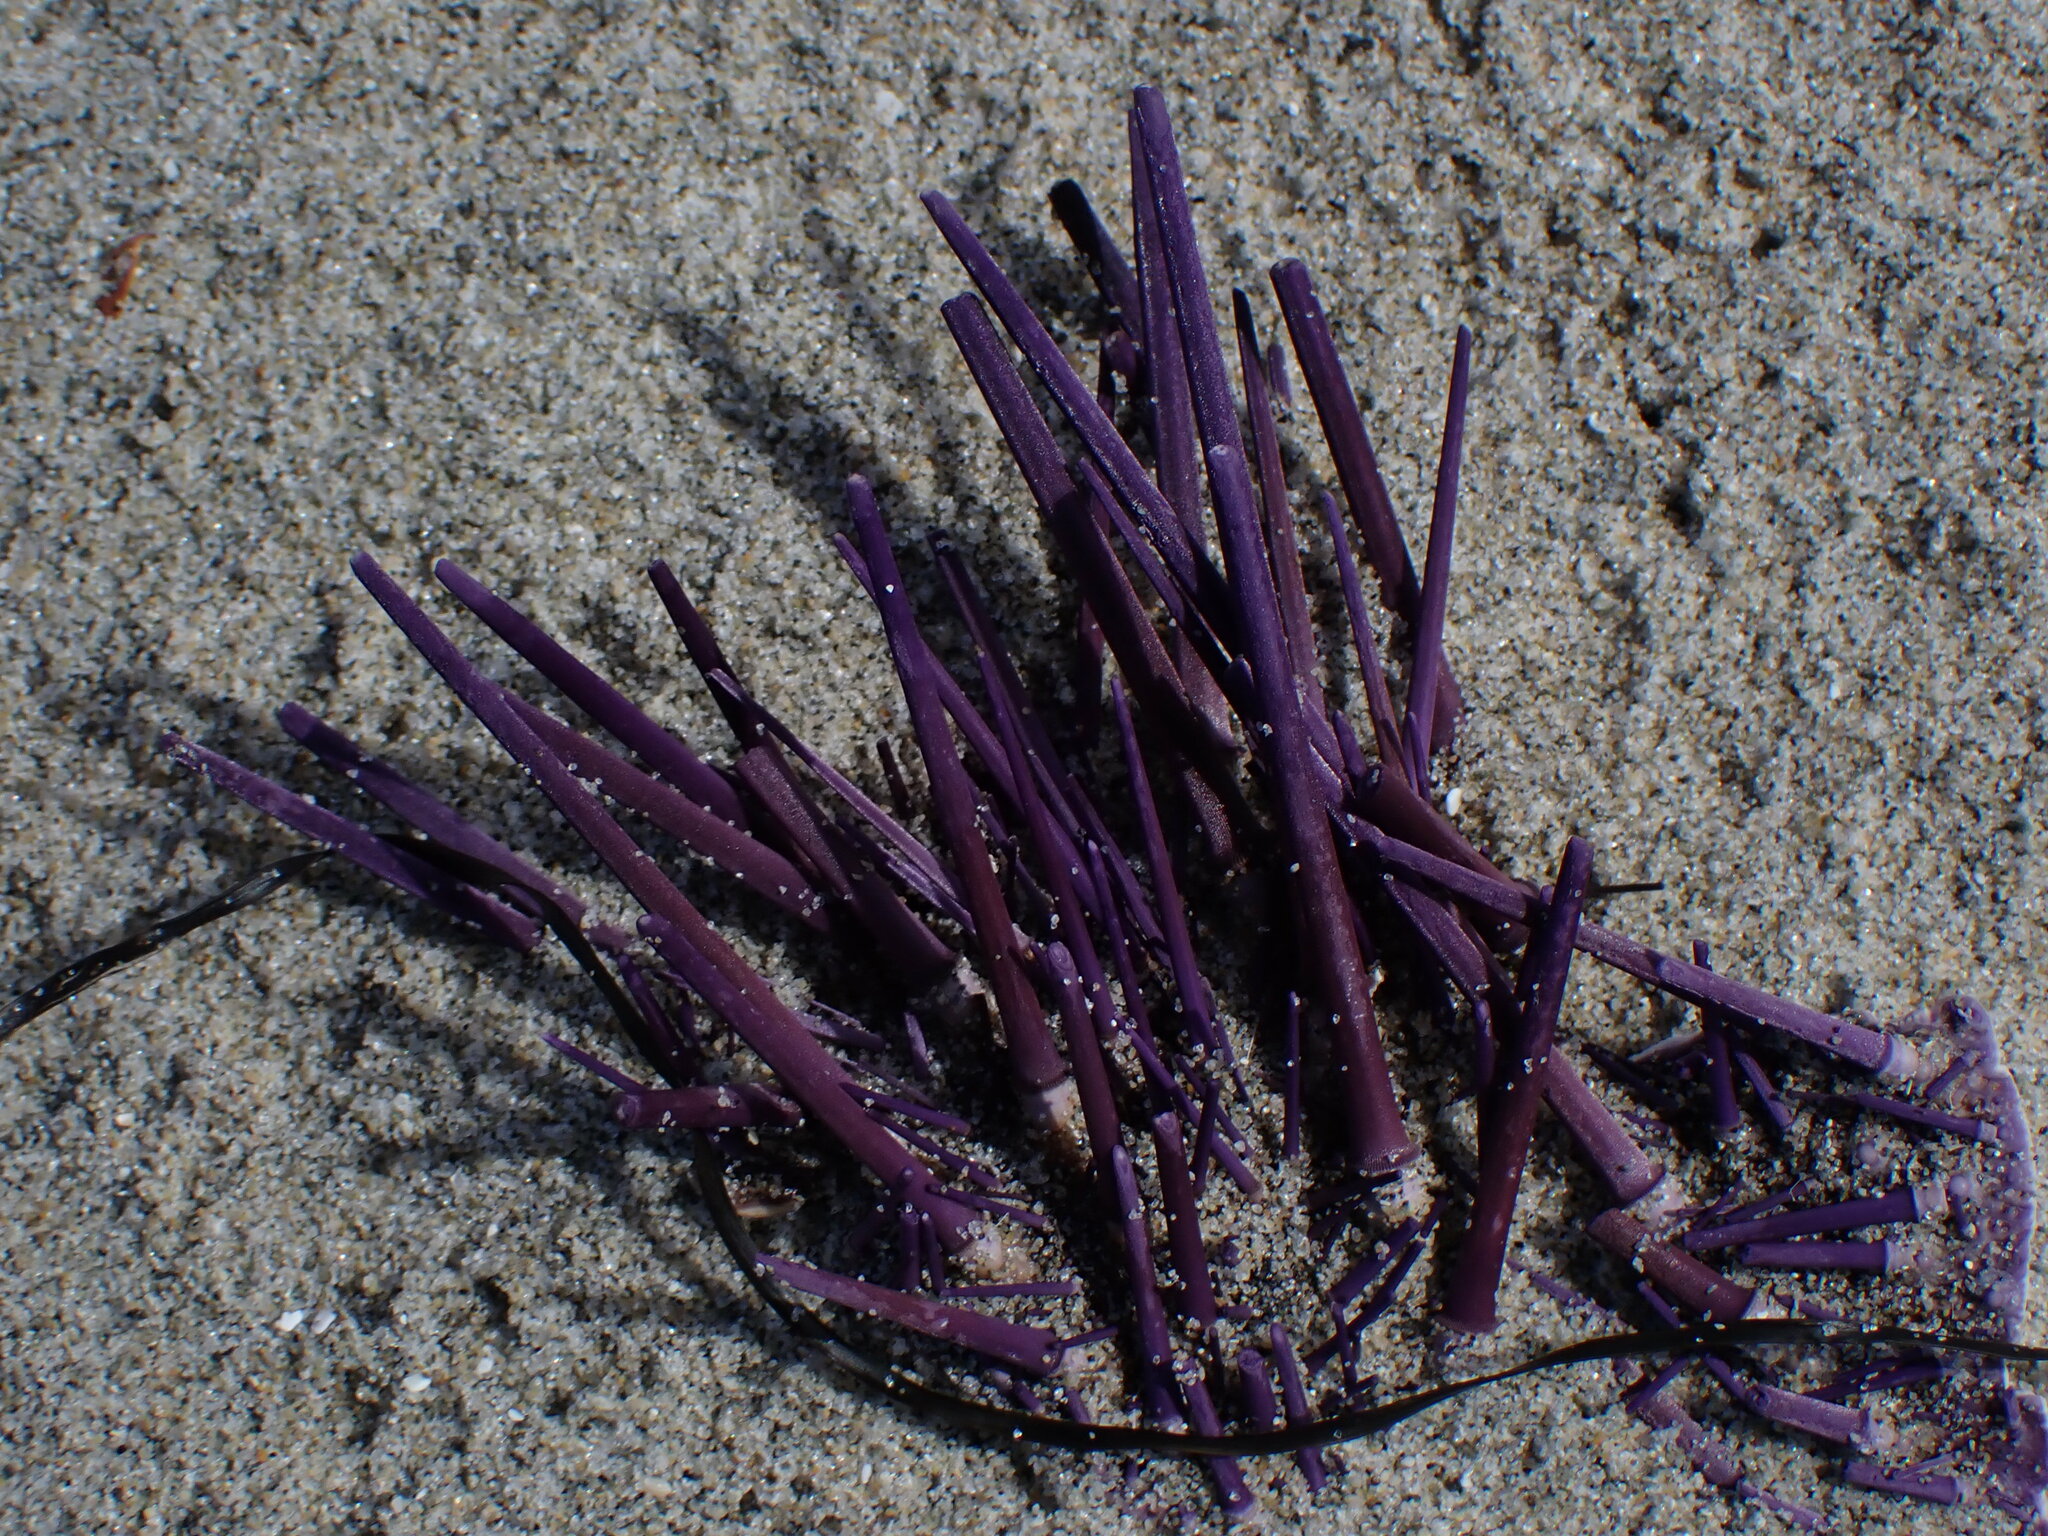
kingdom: Animalia
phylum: Echinodermata
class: Echinoidea
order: Camarodonta
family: Strongylocentrotidae
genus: Strongylocentrotus
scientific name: Strongylocentrotus purpuratus
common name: Purple sea urchin
